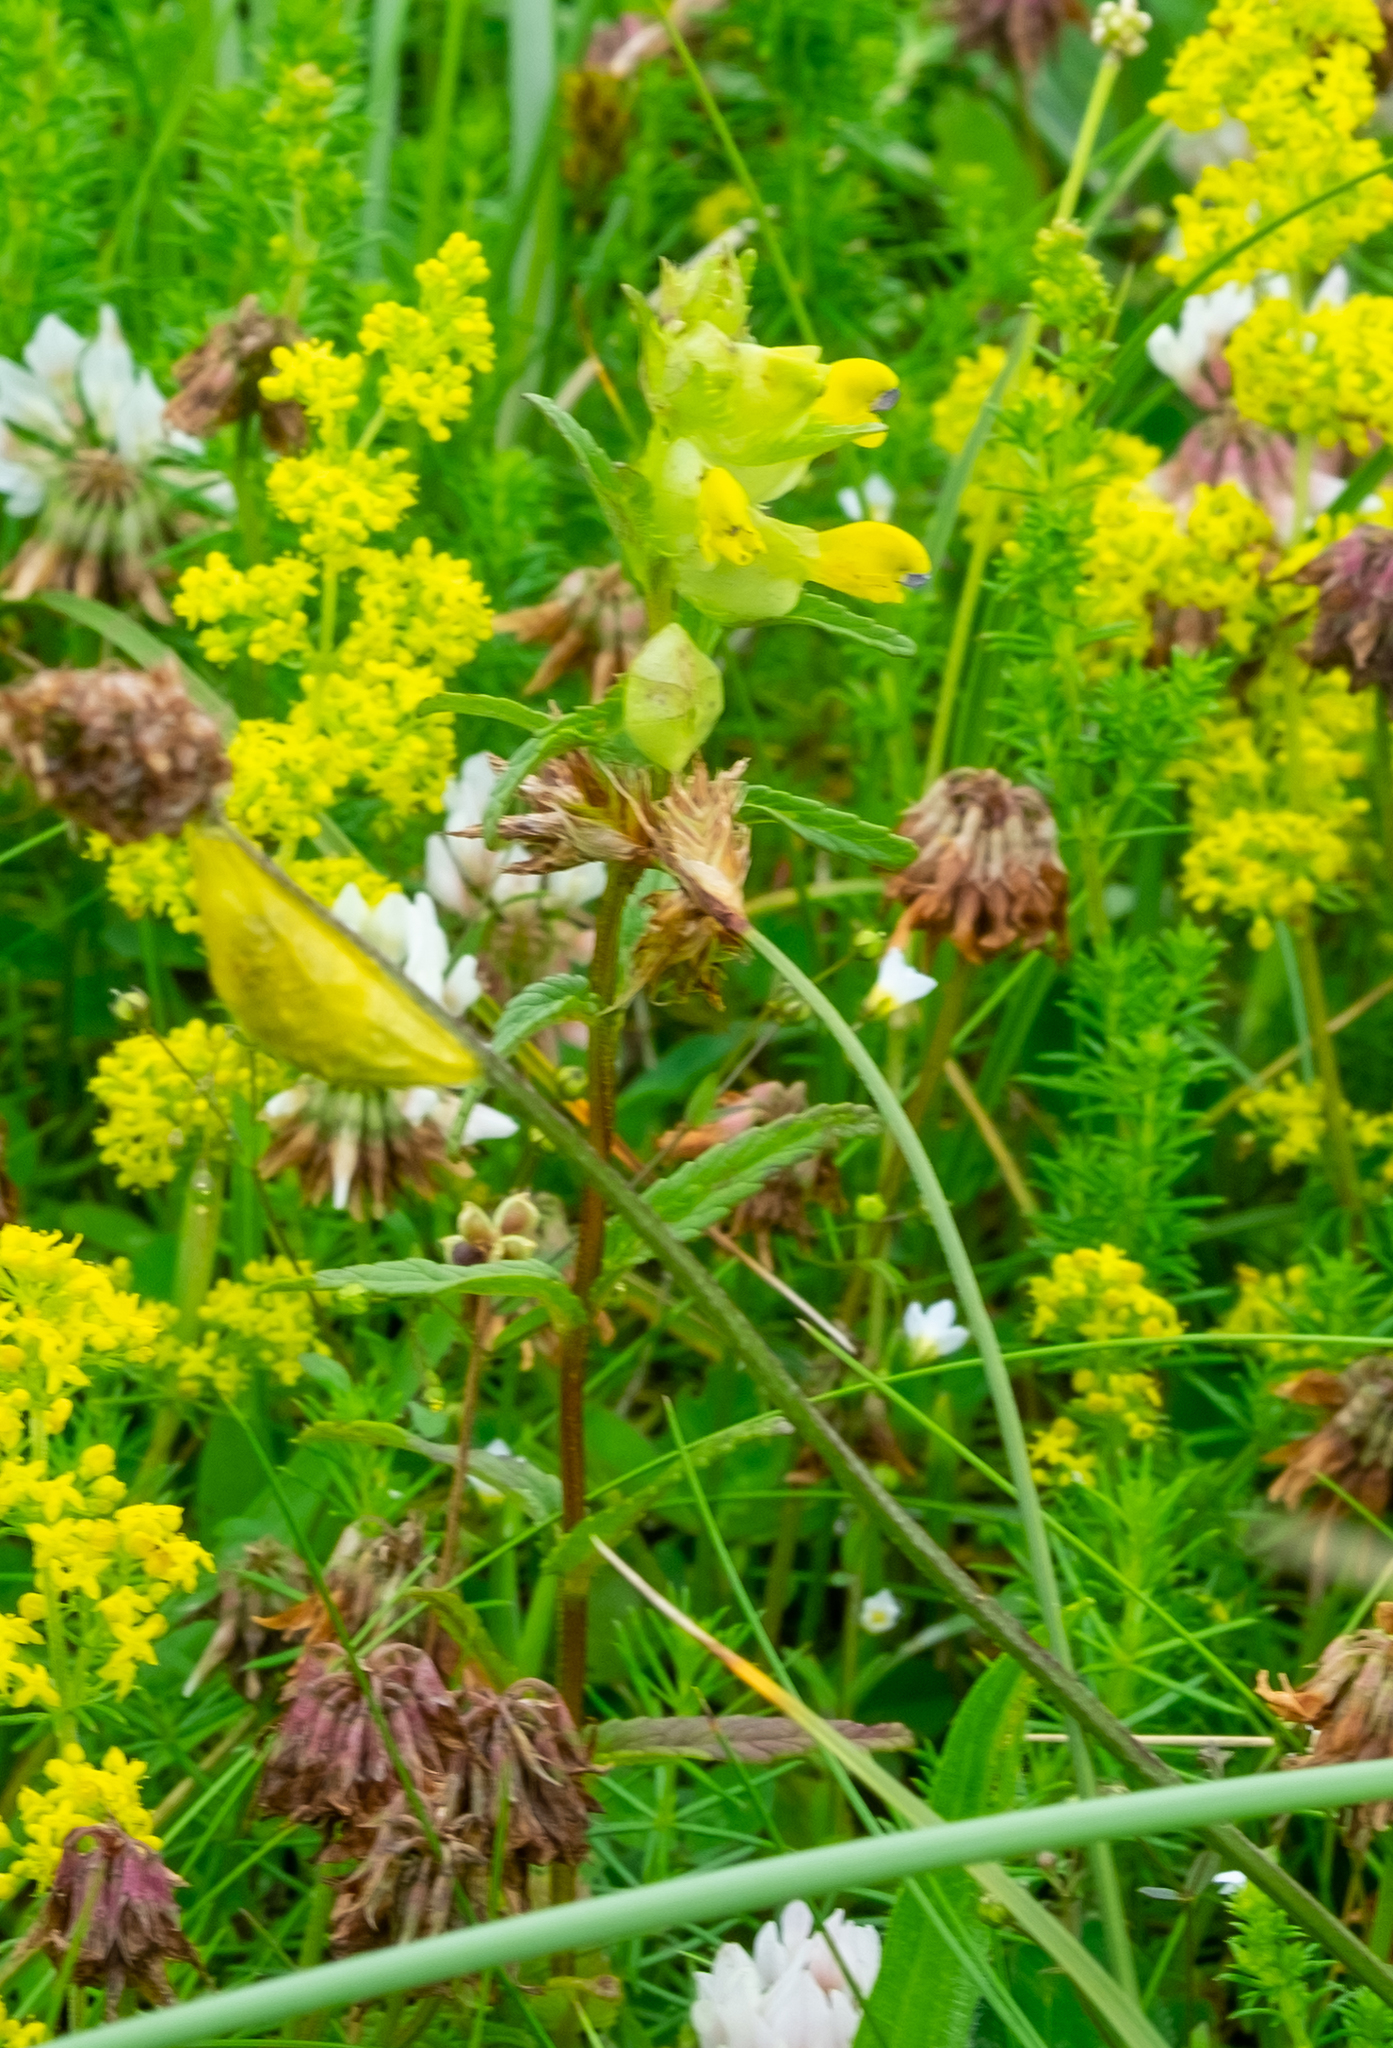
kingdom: Plantae
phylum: Tracheophyta
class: Magnoliopsida
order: Lamiales
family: Orobanchaceae
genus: Rhinanthus
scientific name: Rhinanthus minor
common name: Yellow-rattle
